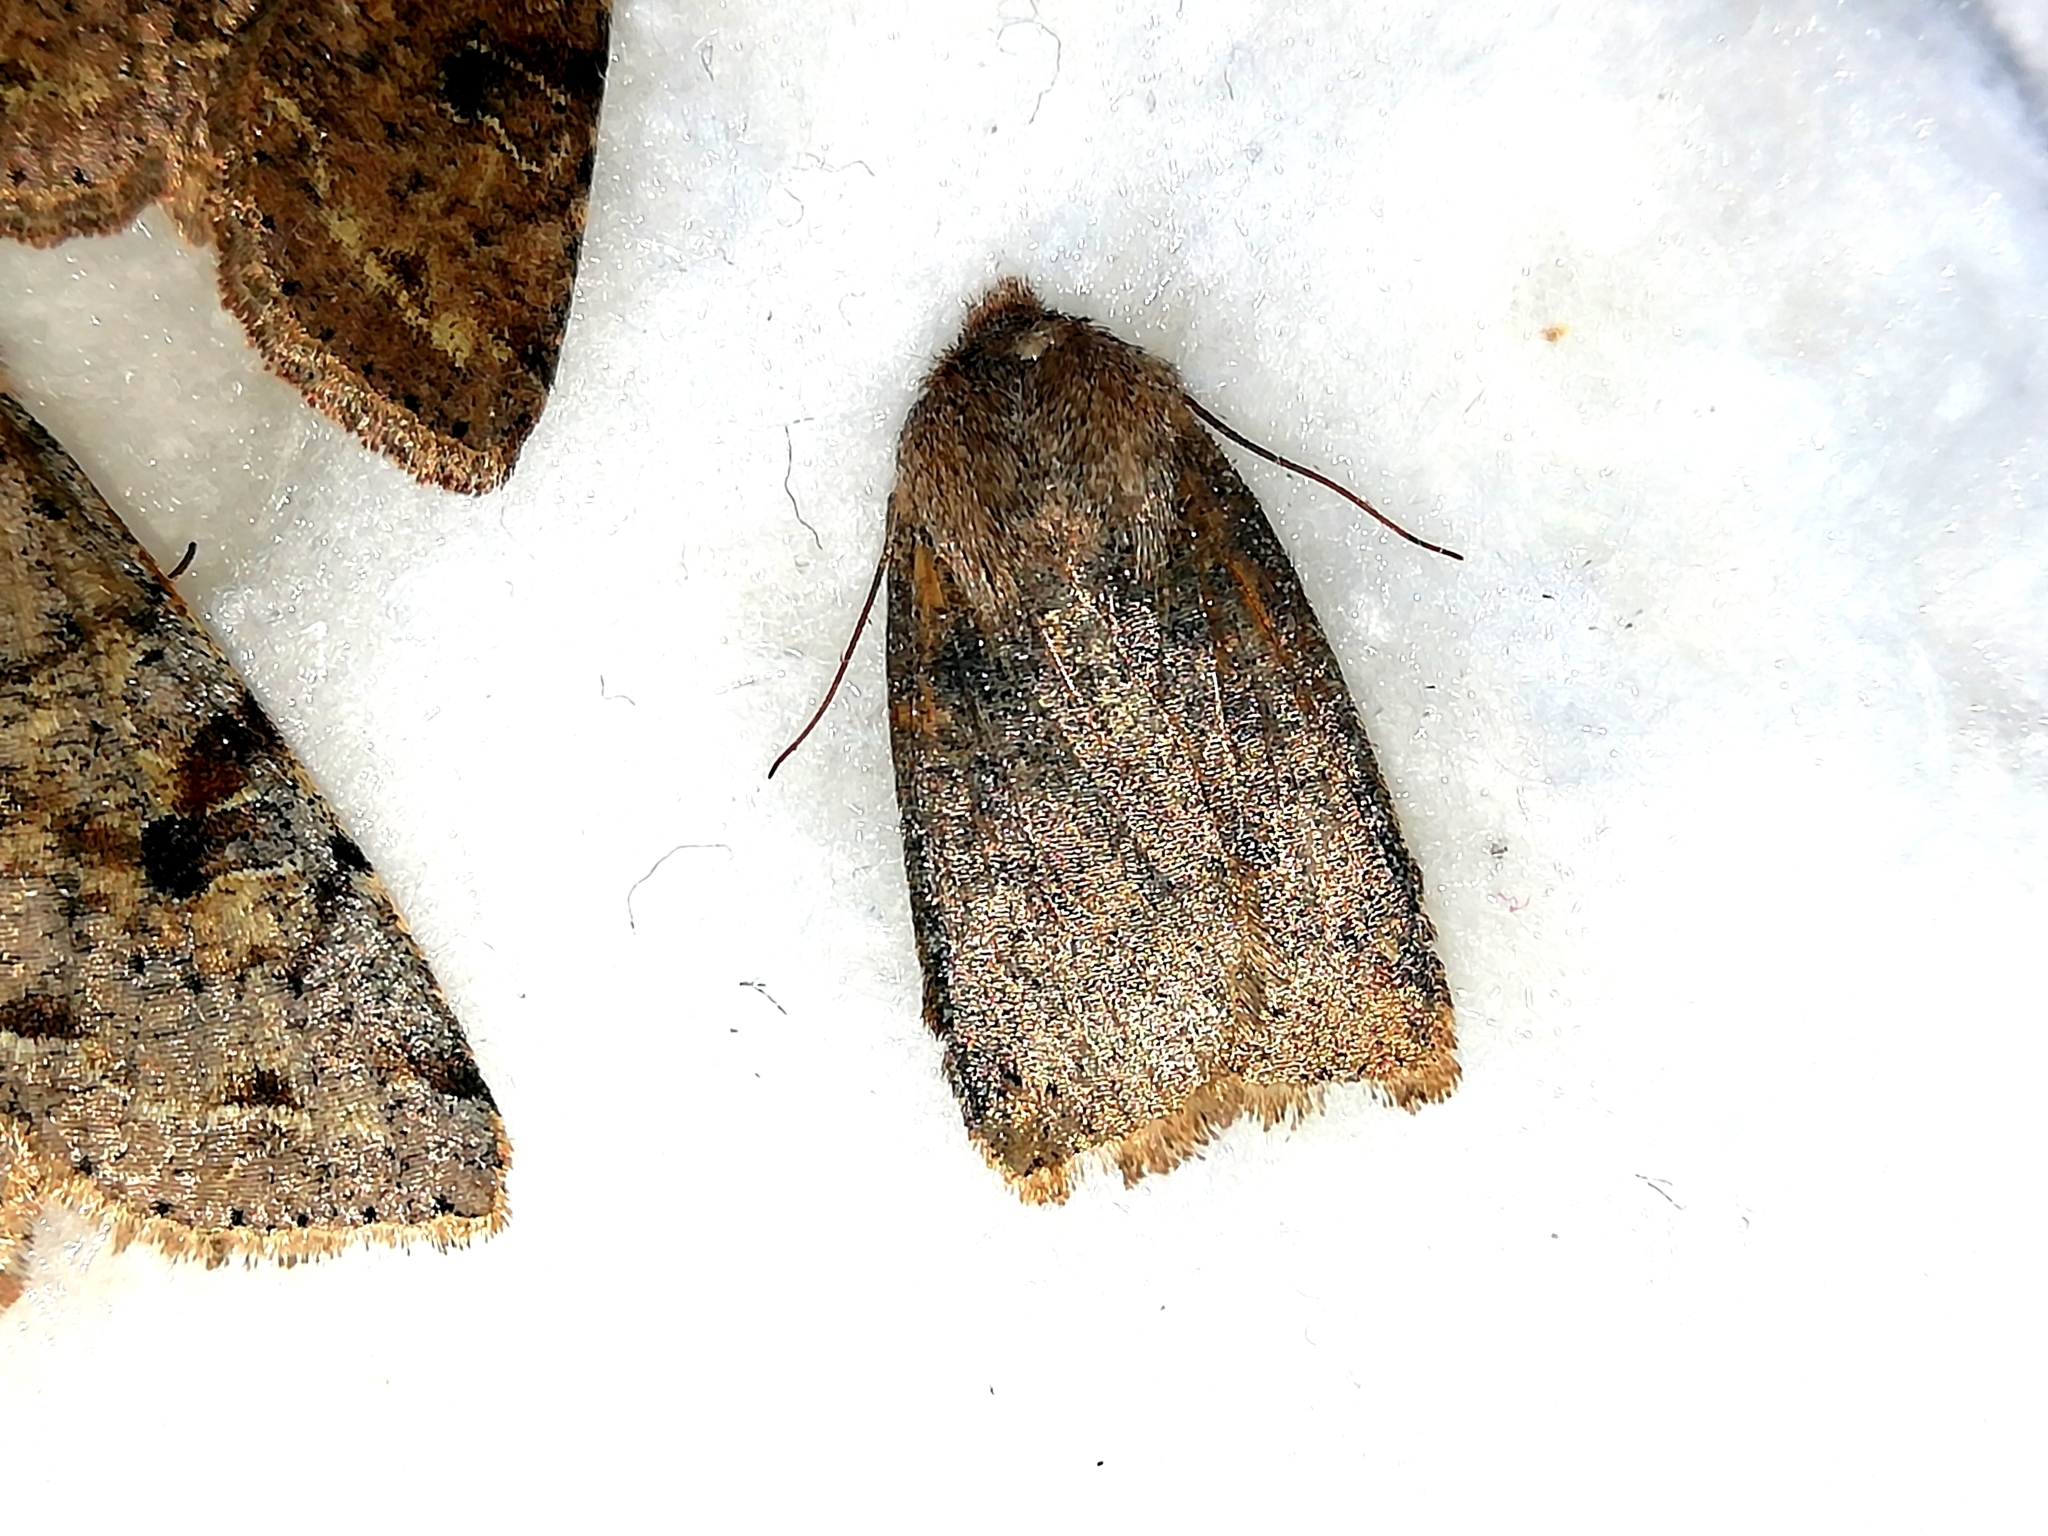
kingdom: Animalia
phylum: Arthropoda
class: Insecta
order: Lepidoptera
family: Noctuidae
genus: Conistra
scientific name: Conistra vaccinii
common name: Chestnut
